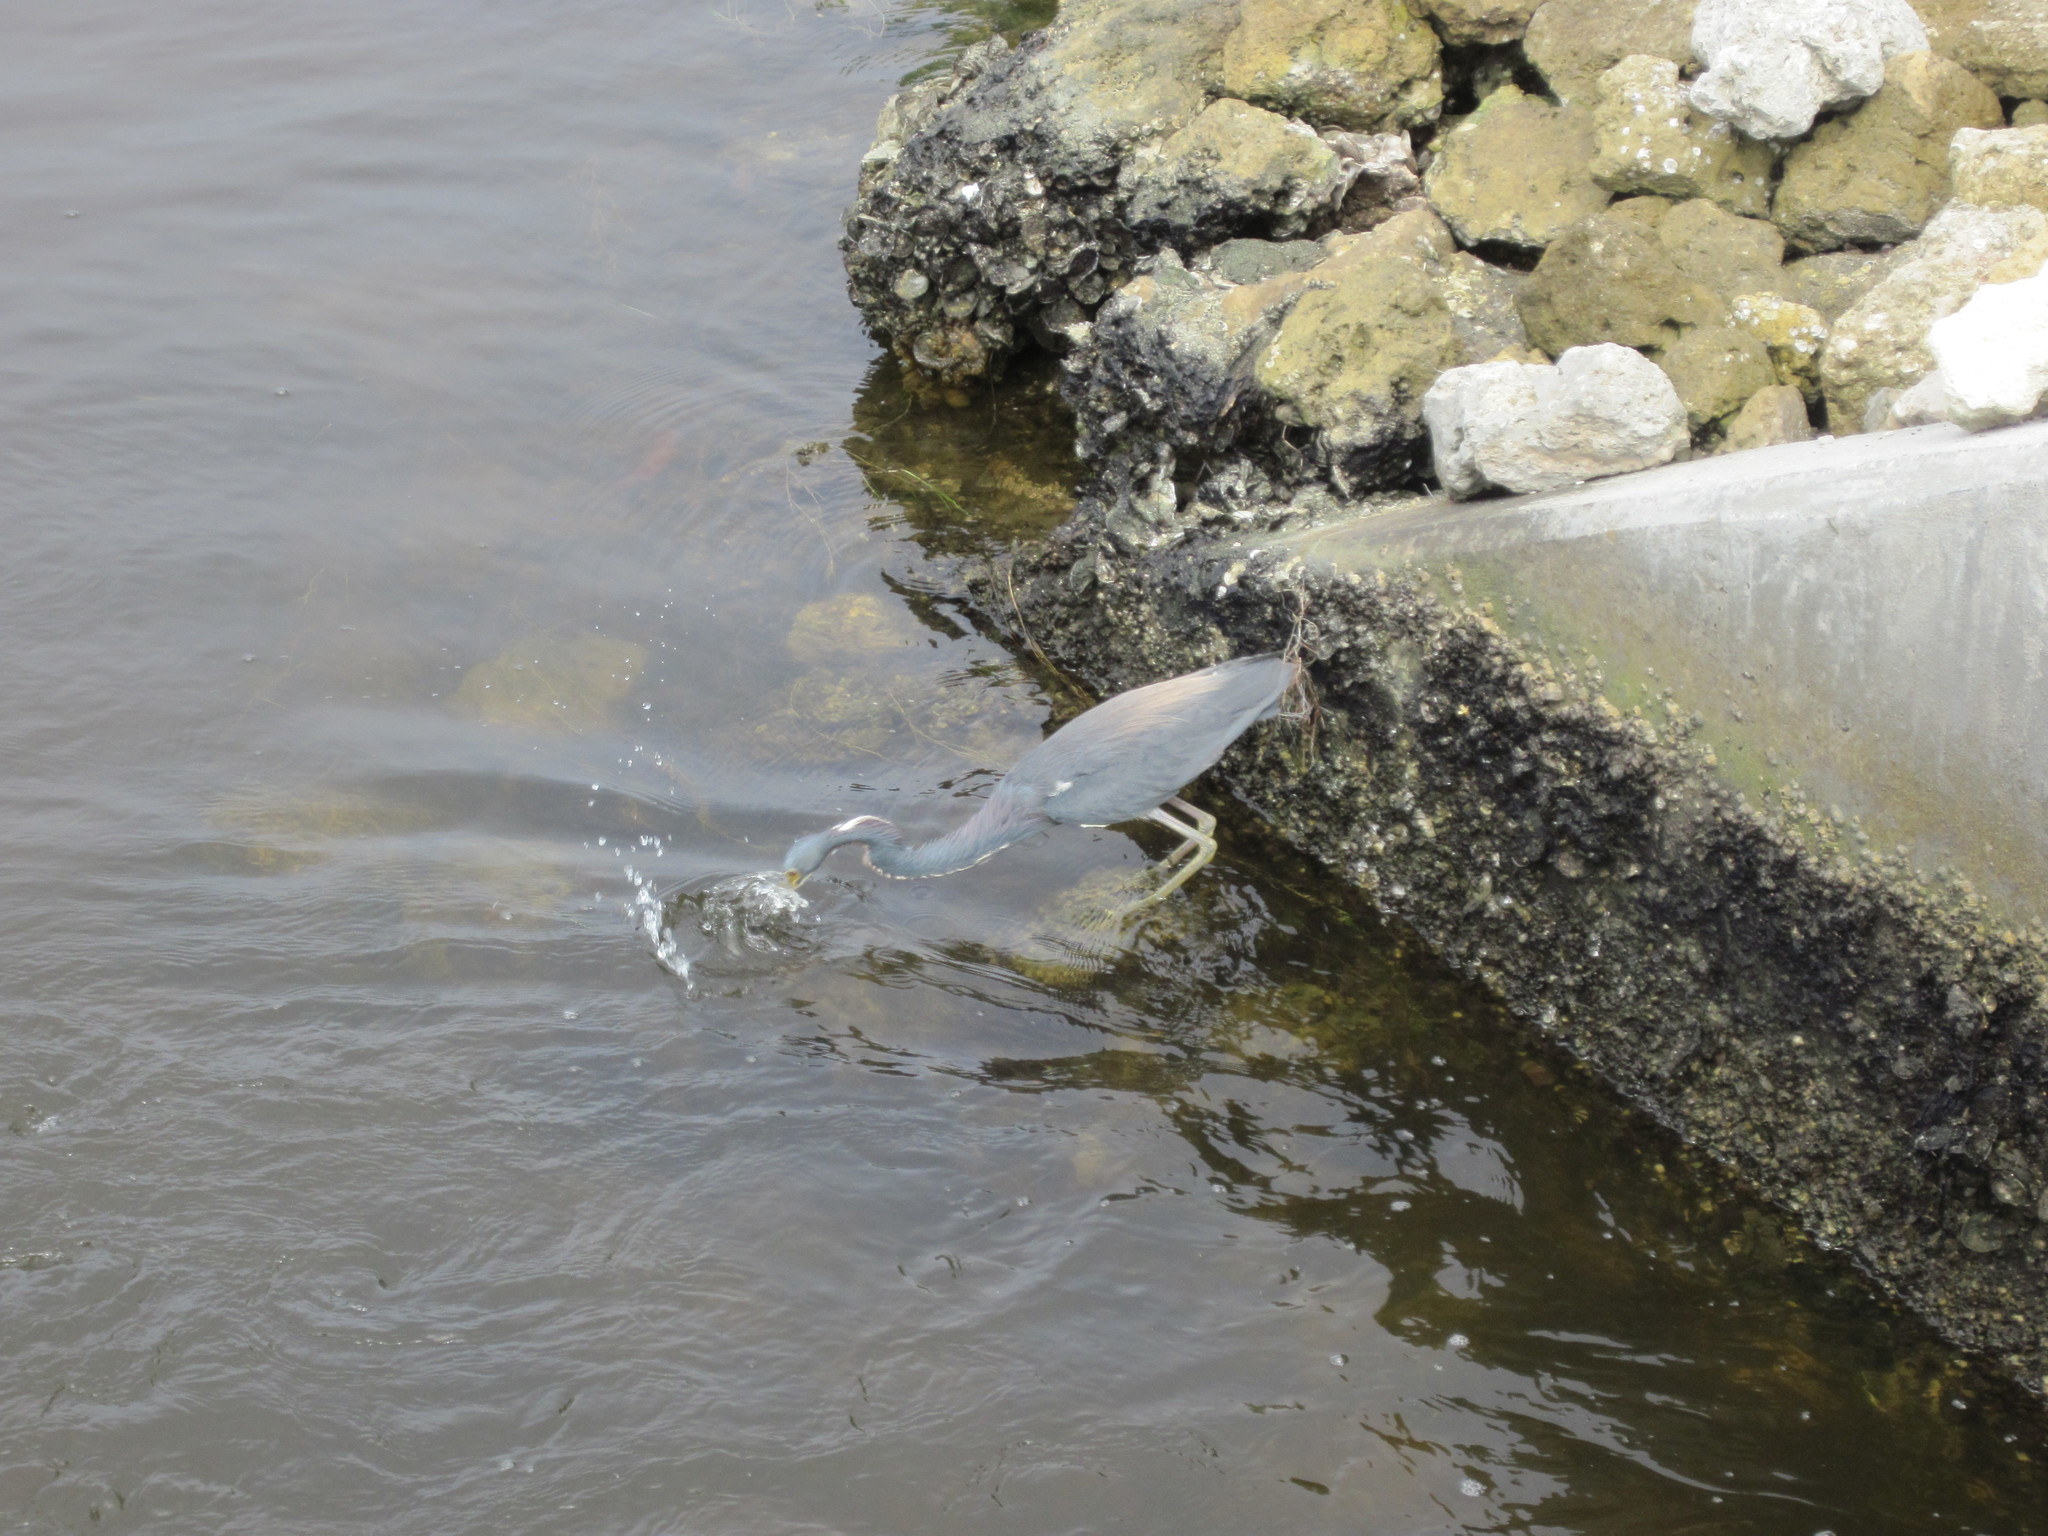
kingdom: Animalia
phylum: Chordata
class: Aves
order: Pelecaniformes
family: Ardeidae
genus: Egretta
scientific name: Egretta tricolor
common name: Tricolored heron
